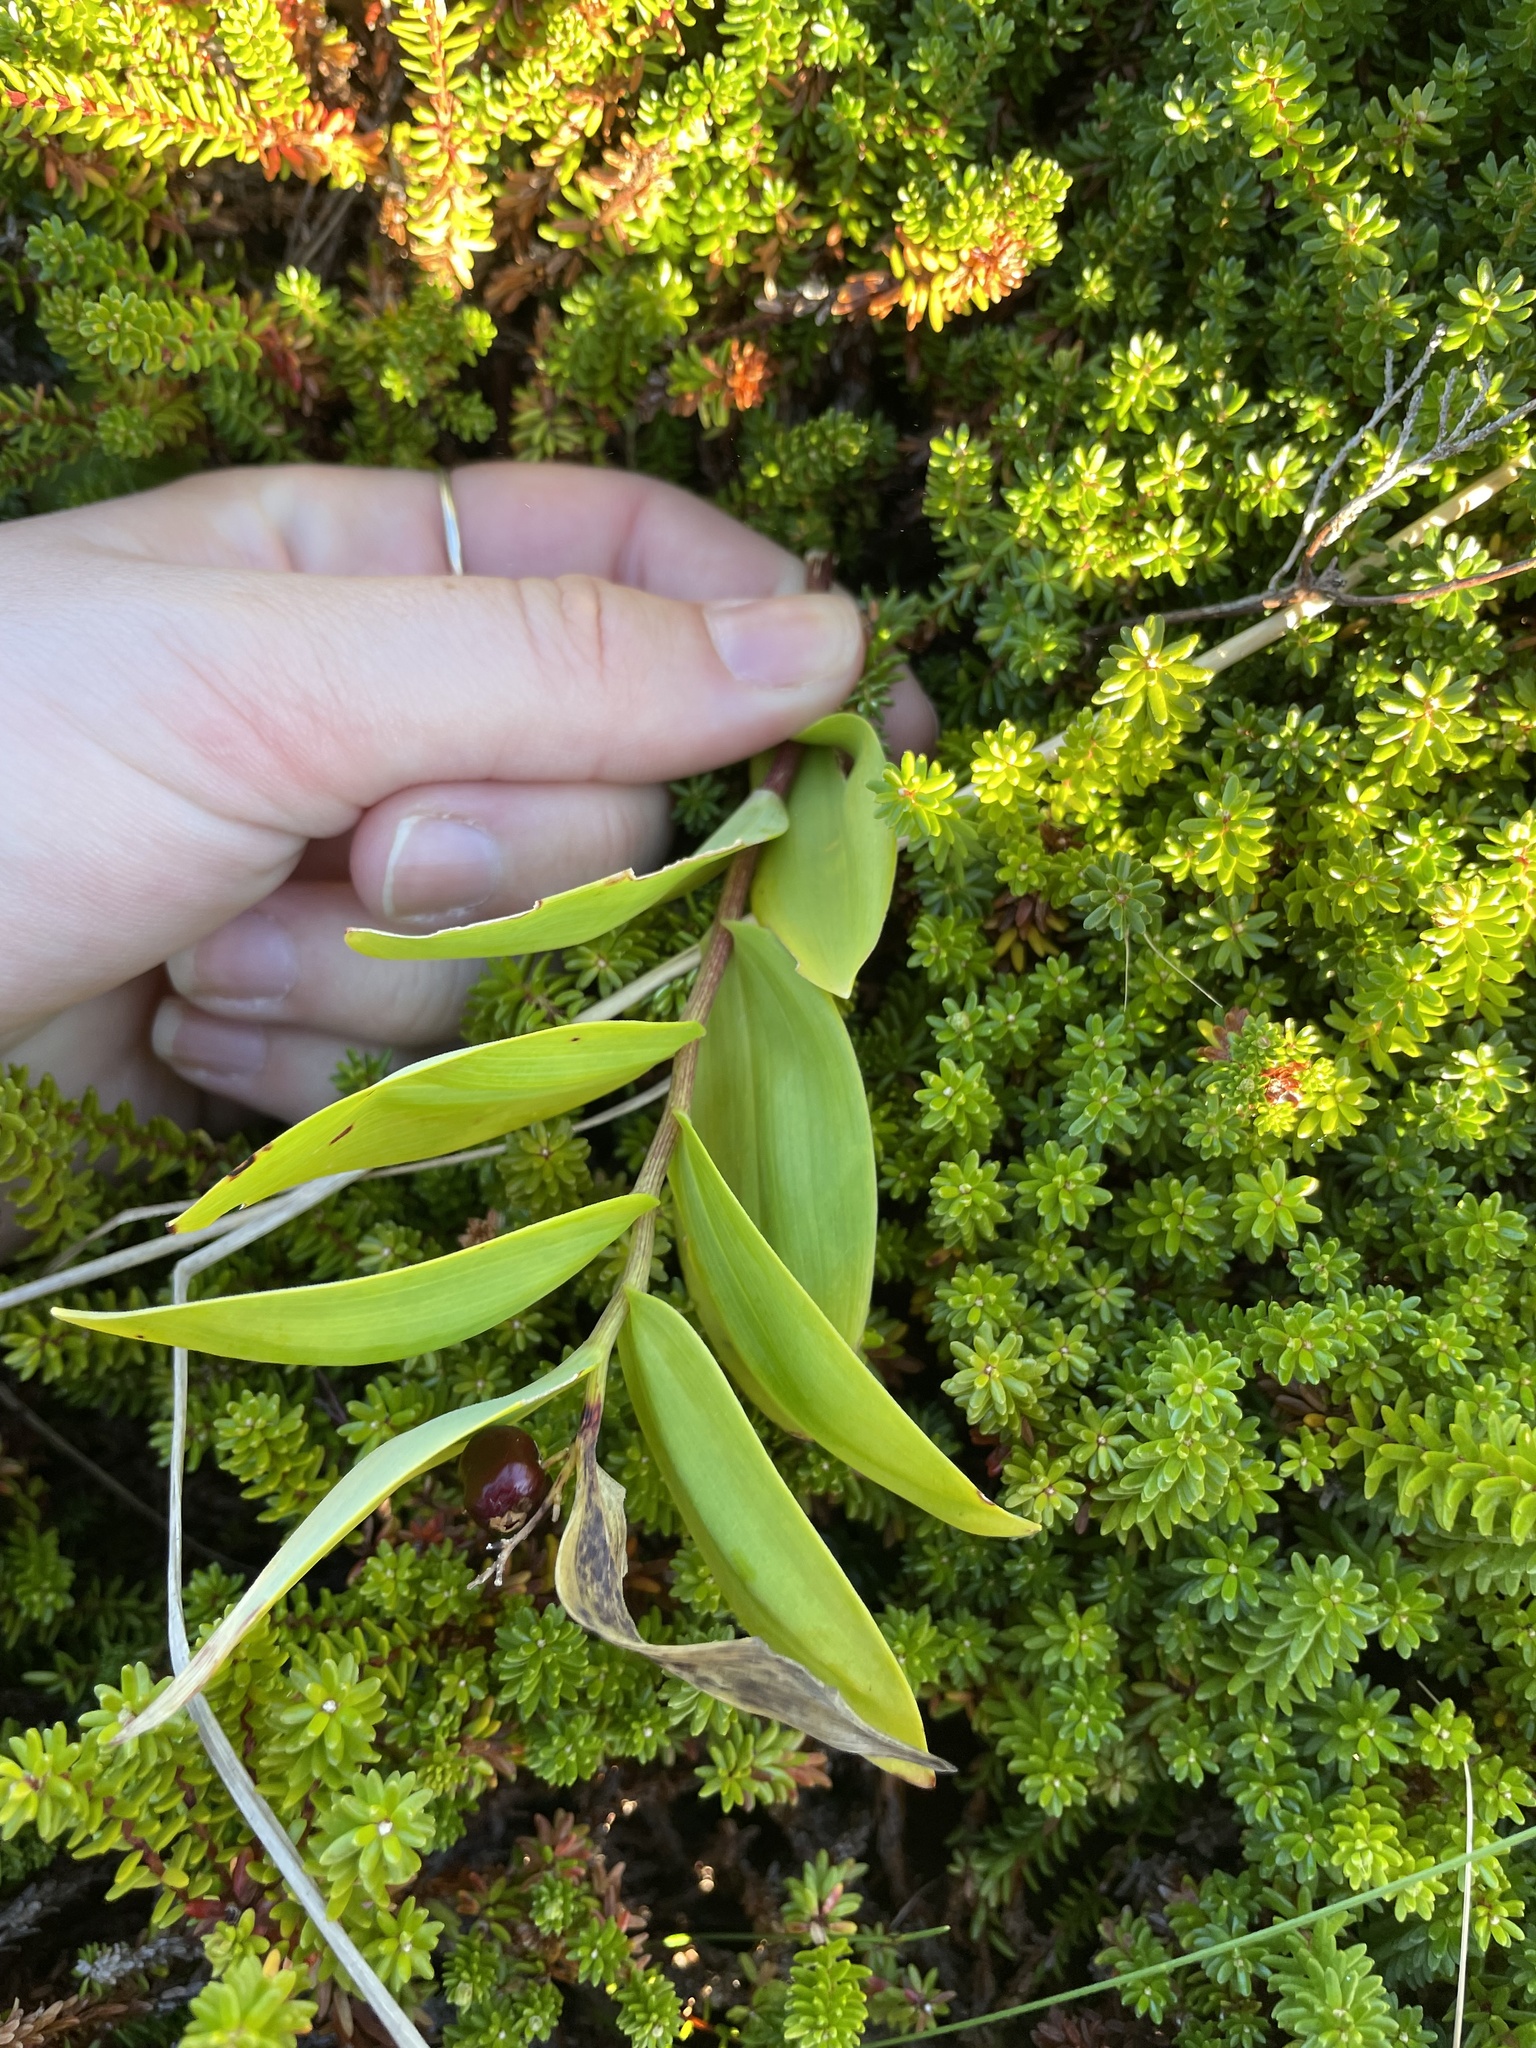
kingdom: Plantae
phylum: Tracheophyta
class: Liliopsida
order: Asparagales
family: Asparagaceae
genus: Maianthemum
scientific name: Maianthemum stellatum
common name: Little false solomon's seal
